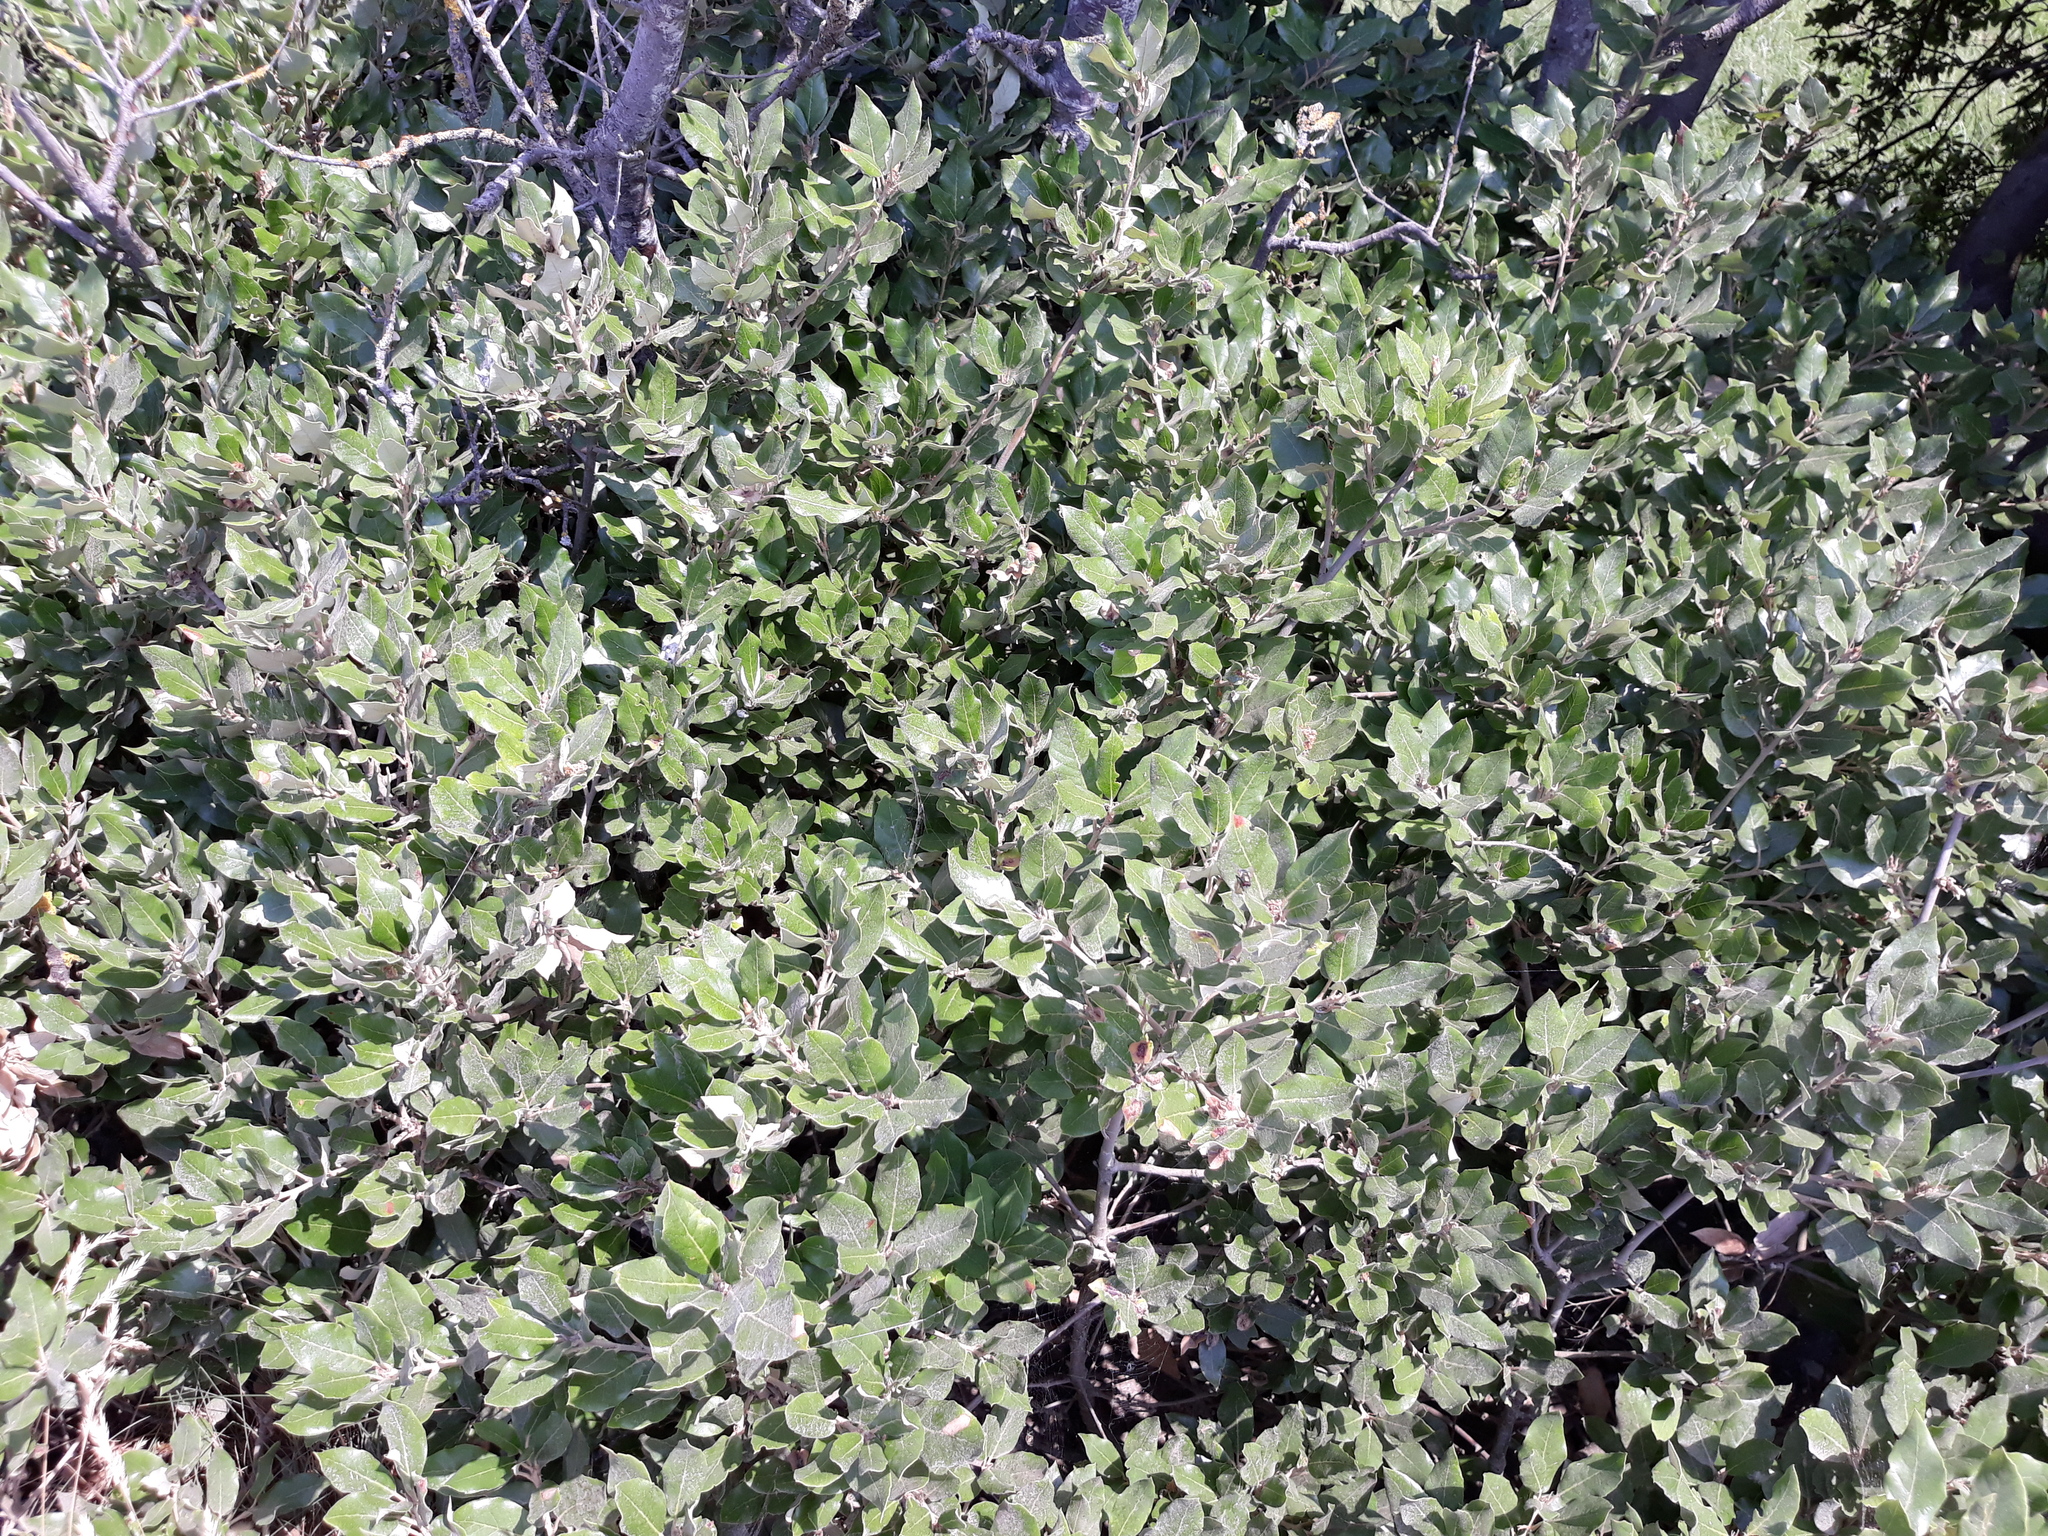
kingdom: Plantae
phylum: Tracheophyta
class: Magnoliopsida
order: Fagales
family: Fagaceae
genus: Quercus
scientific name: Quercus ilex
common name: Evergreen oak
